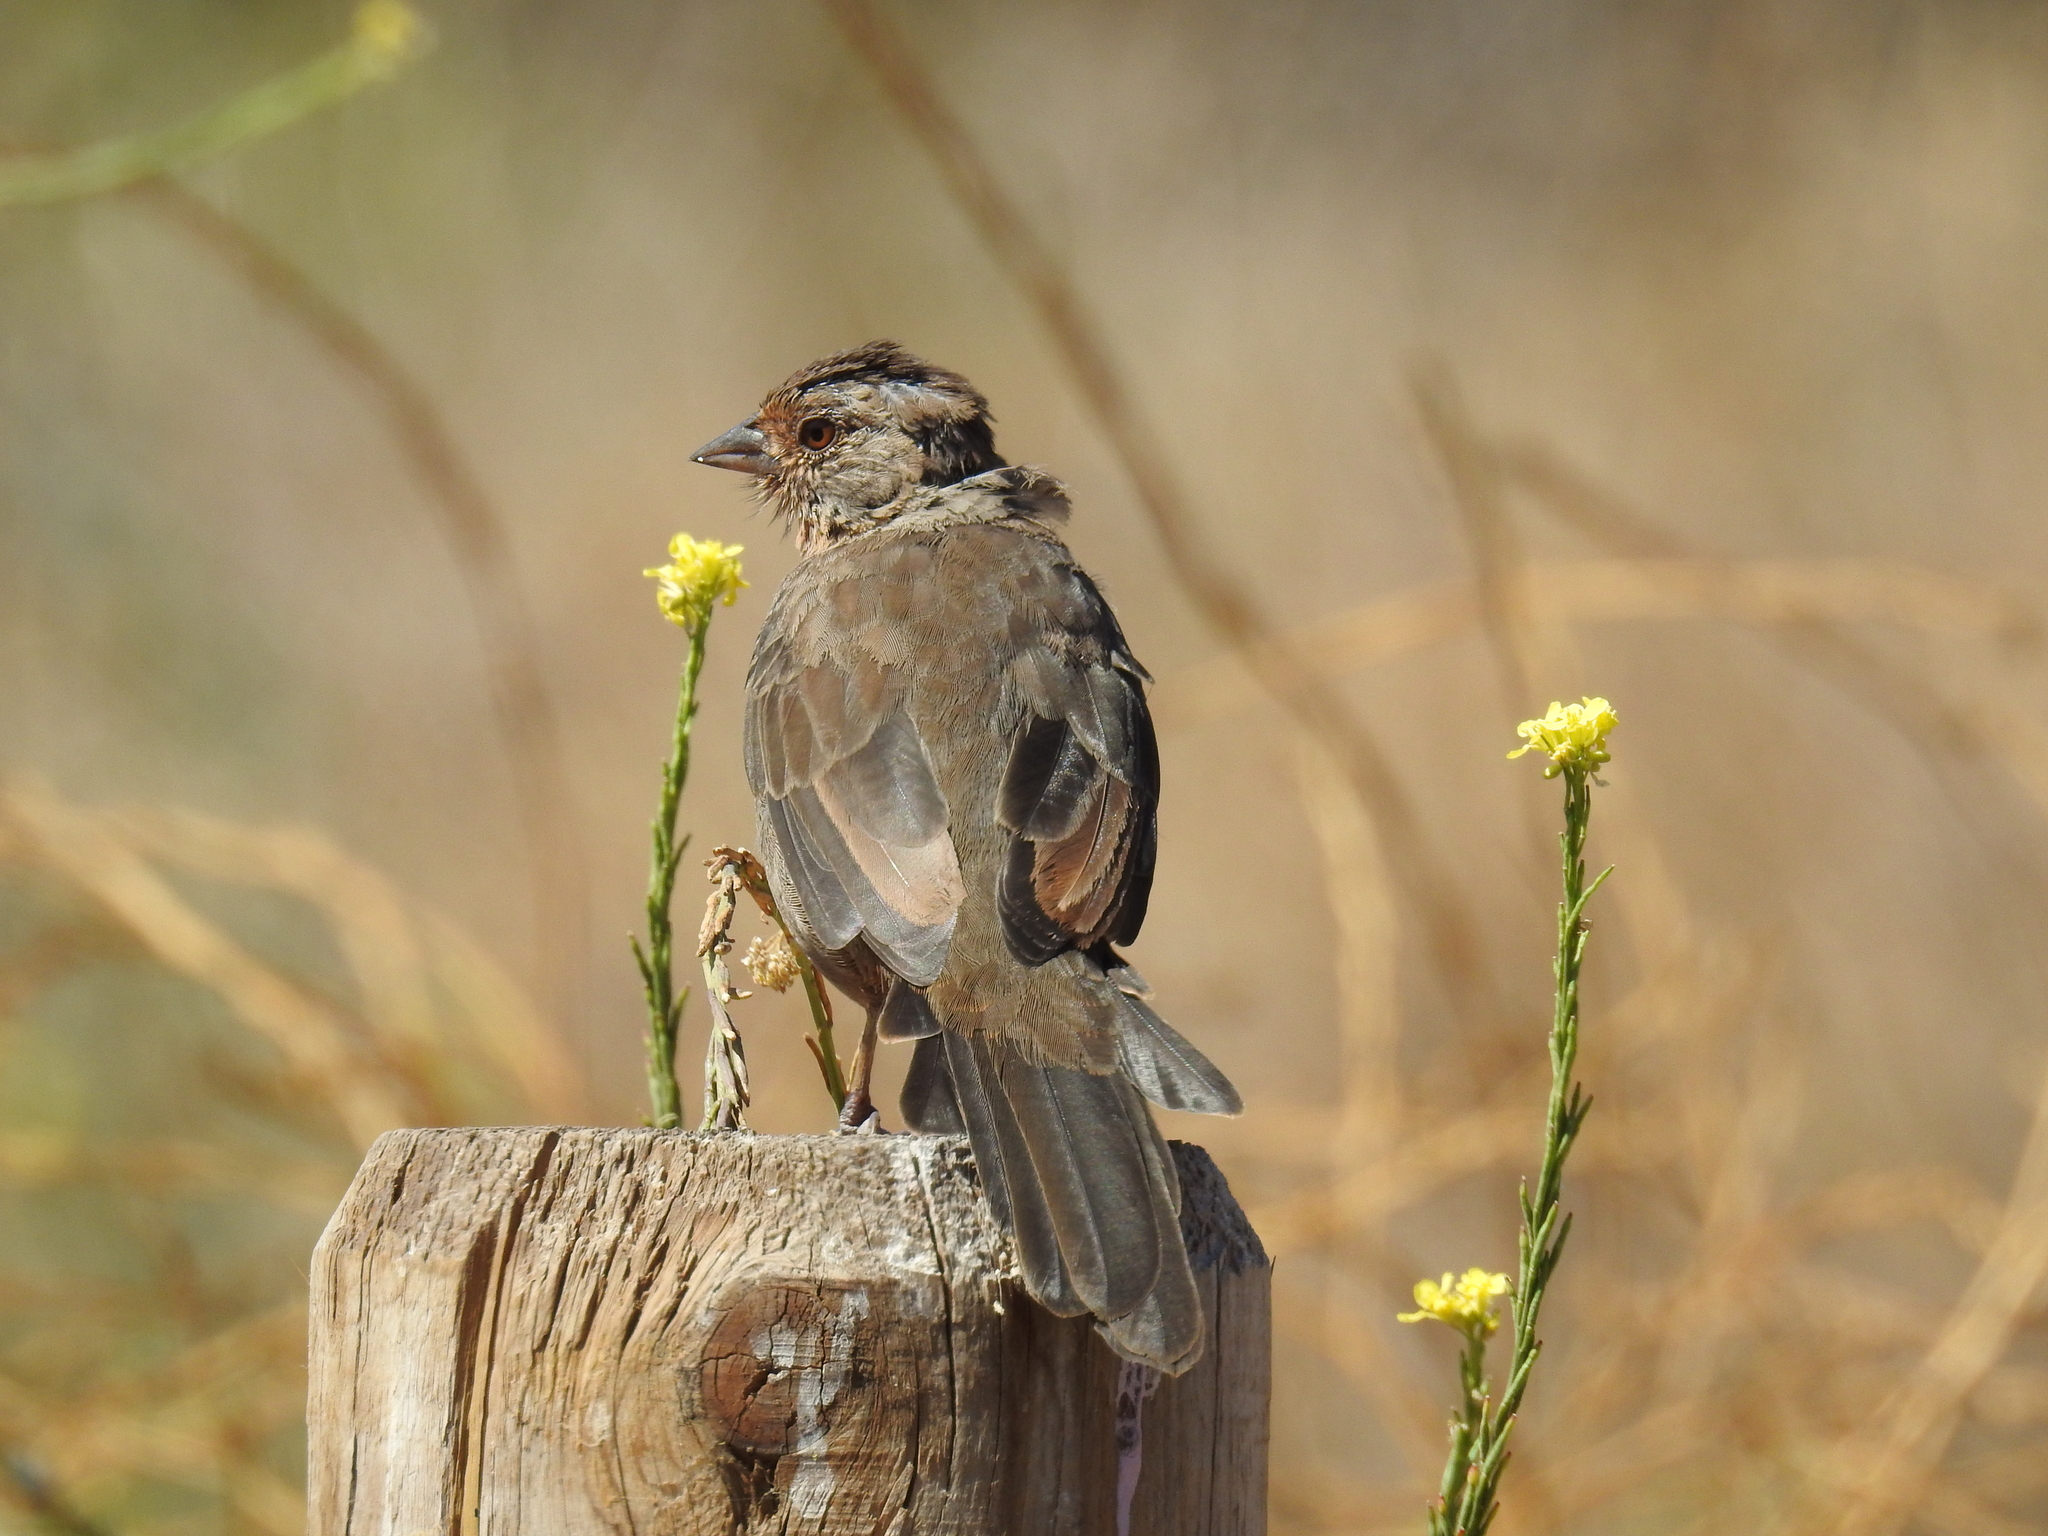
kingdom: Animalia
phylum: Chordata
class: Aves
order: Passeriformes
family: Passerellidae
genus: Melozone
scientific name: Melozone crissalis
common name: California towhee
